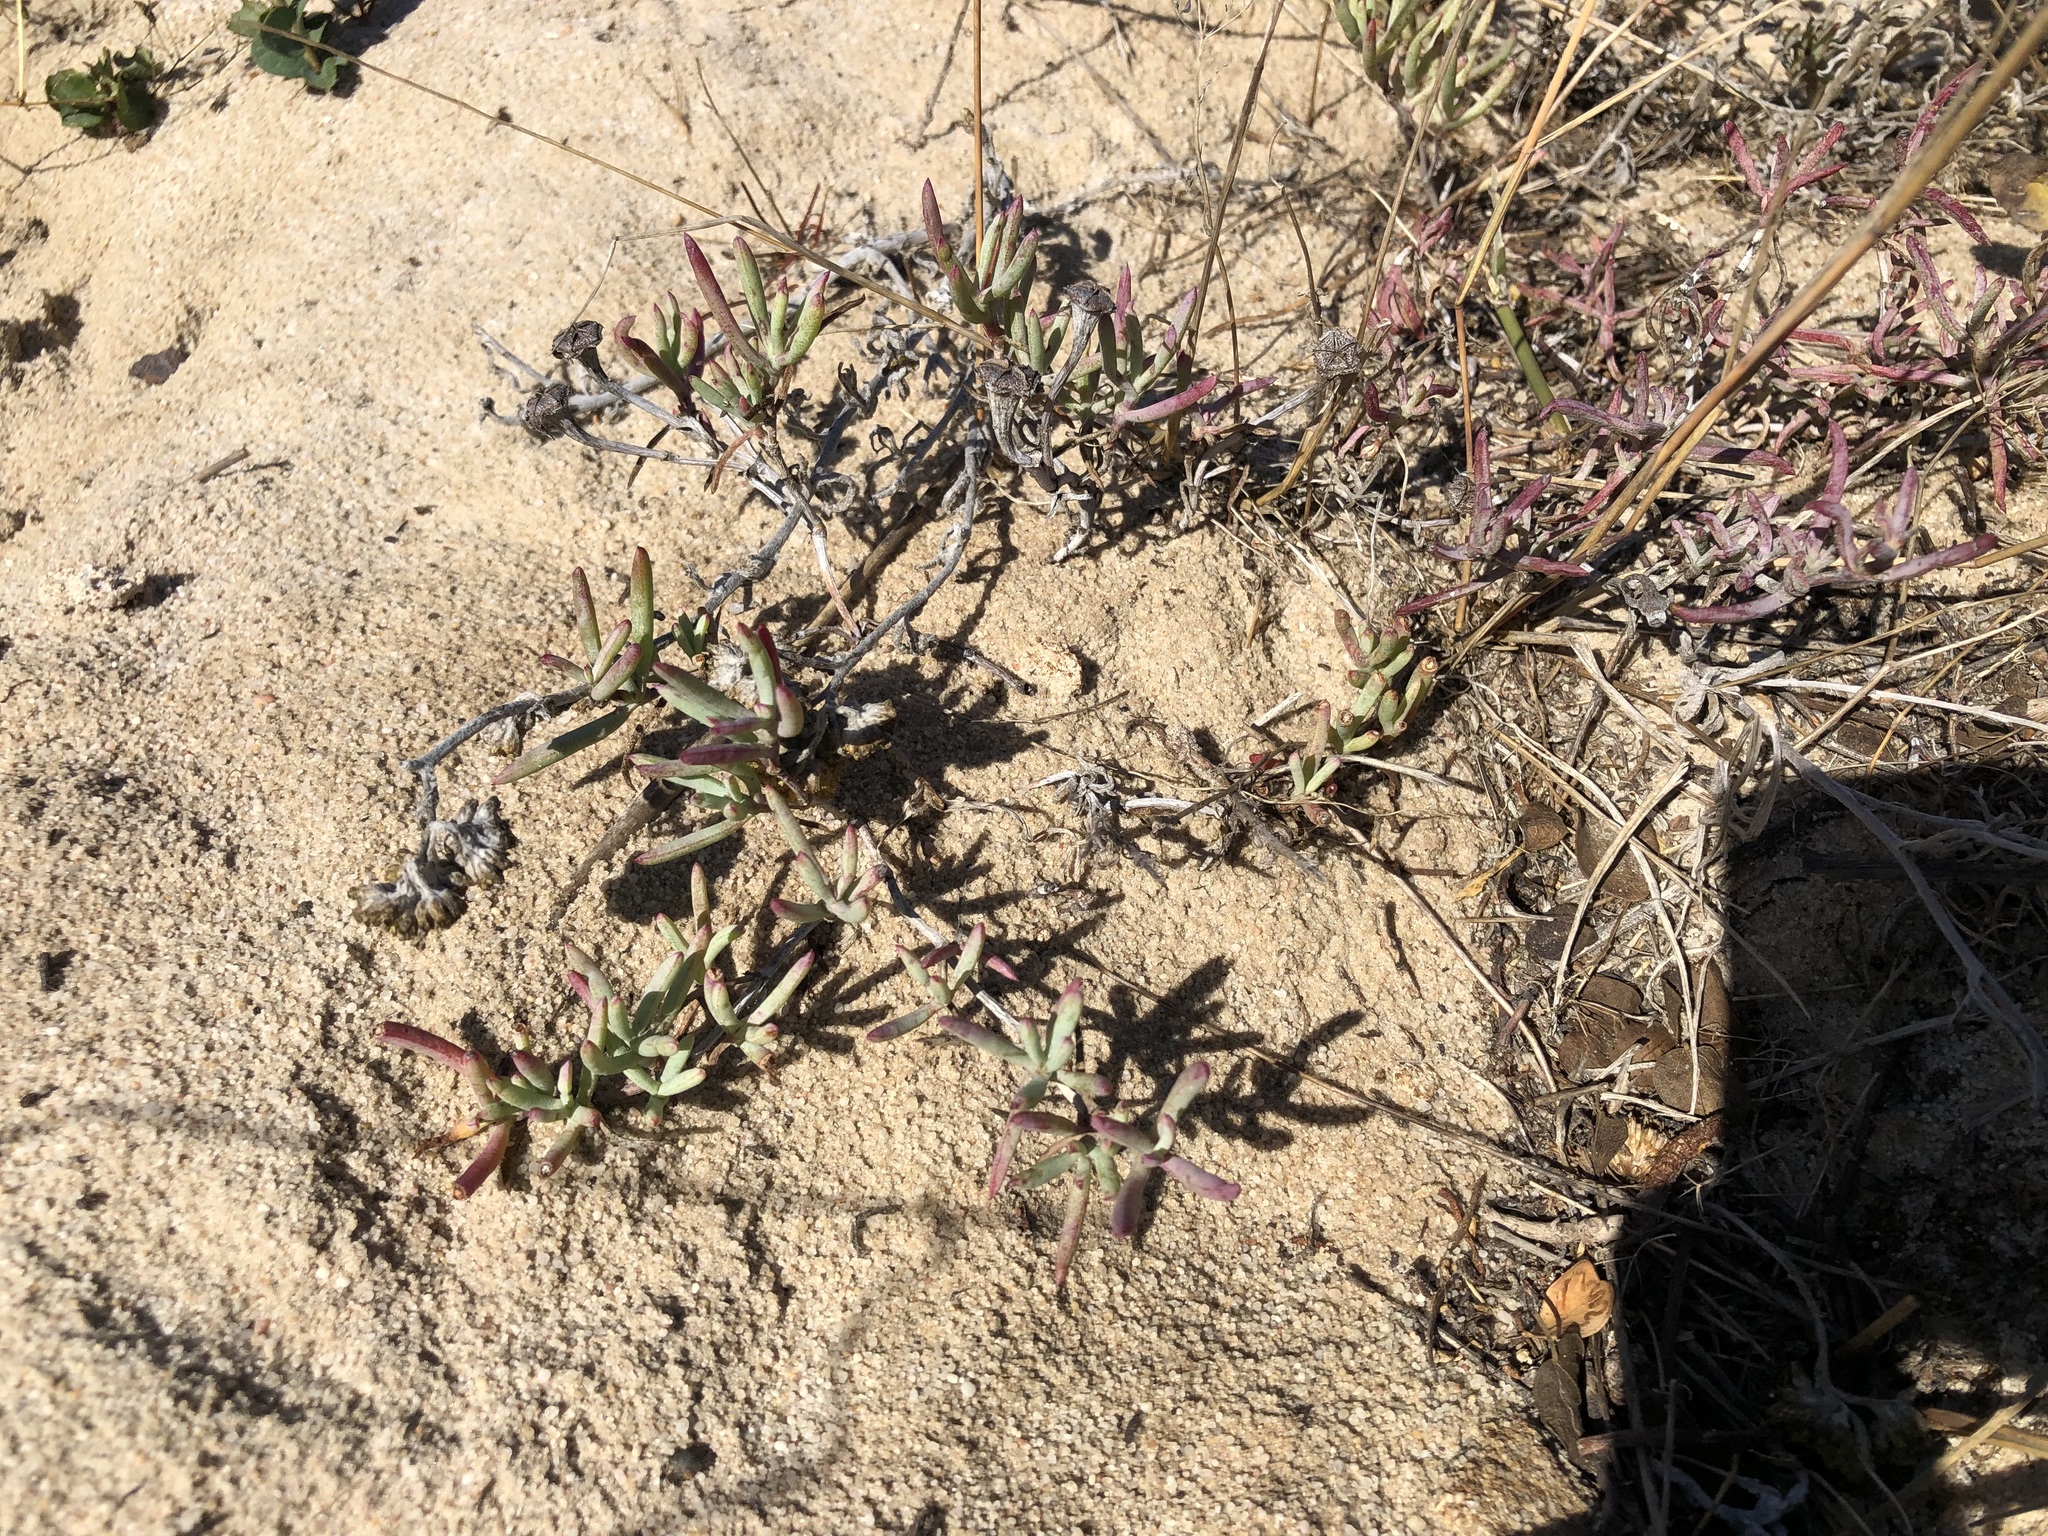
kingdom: Plantae
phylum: Tracheophyta
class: Magnoliopsida
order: Caryophyllales
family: Aizoaceae
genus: Lampranthus
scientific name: Lampranthus explanatus
